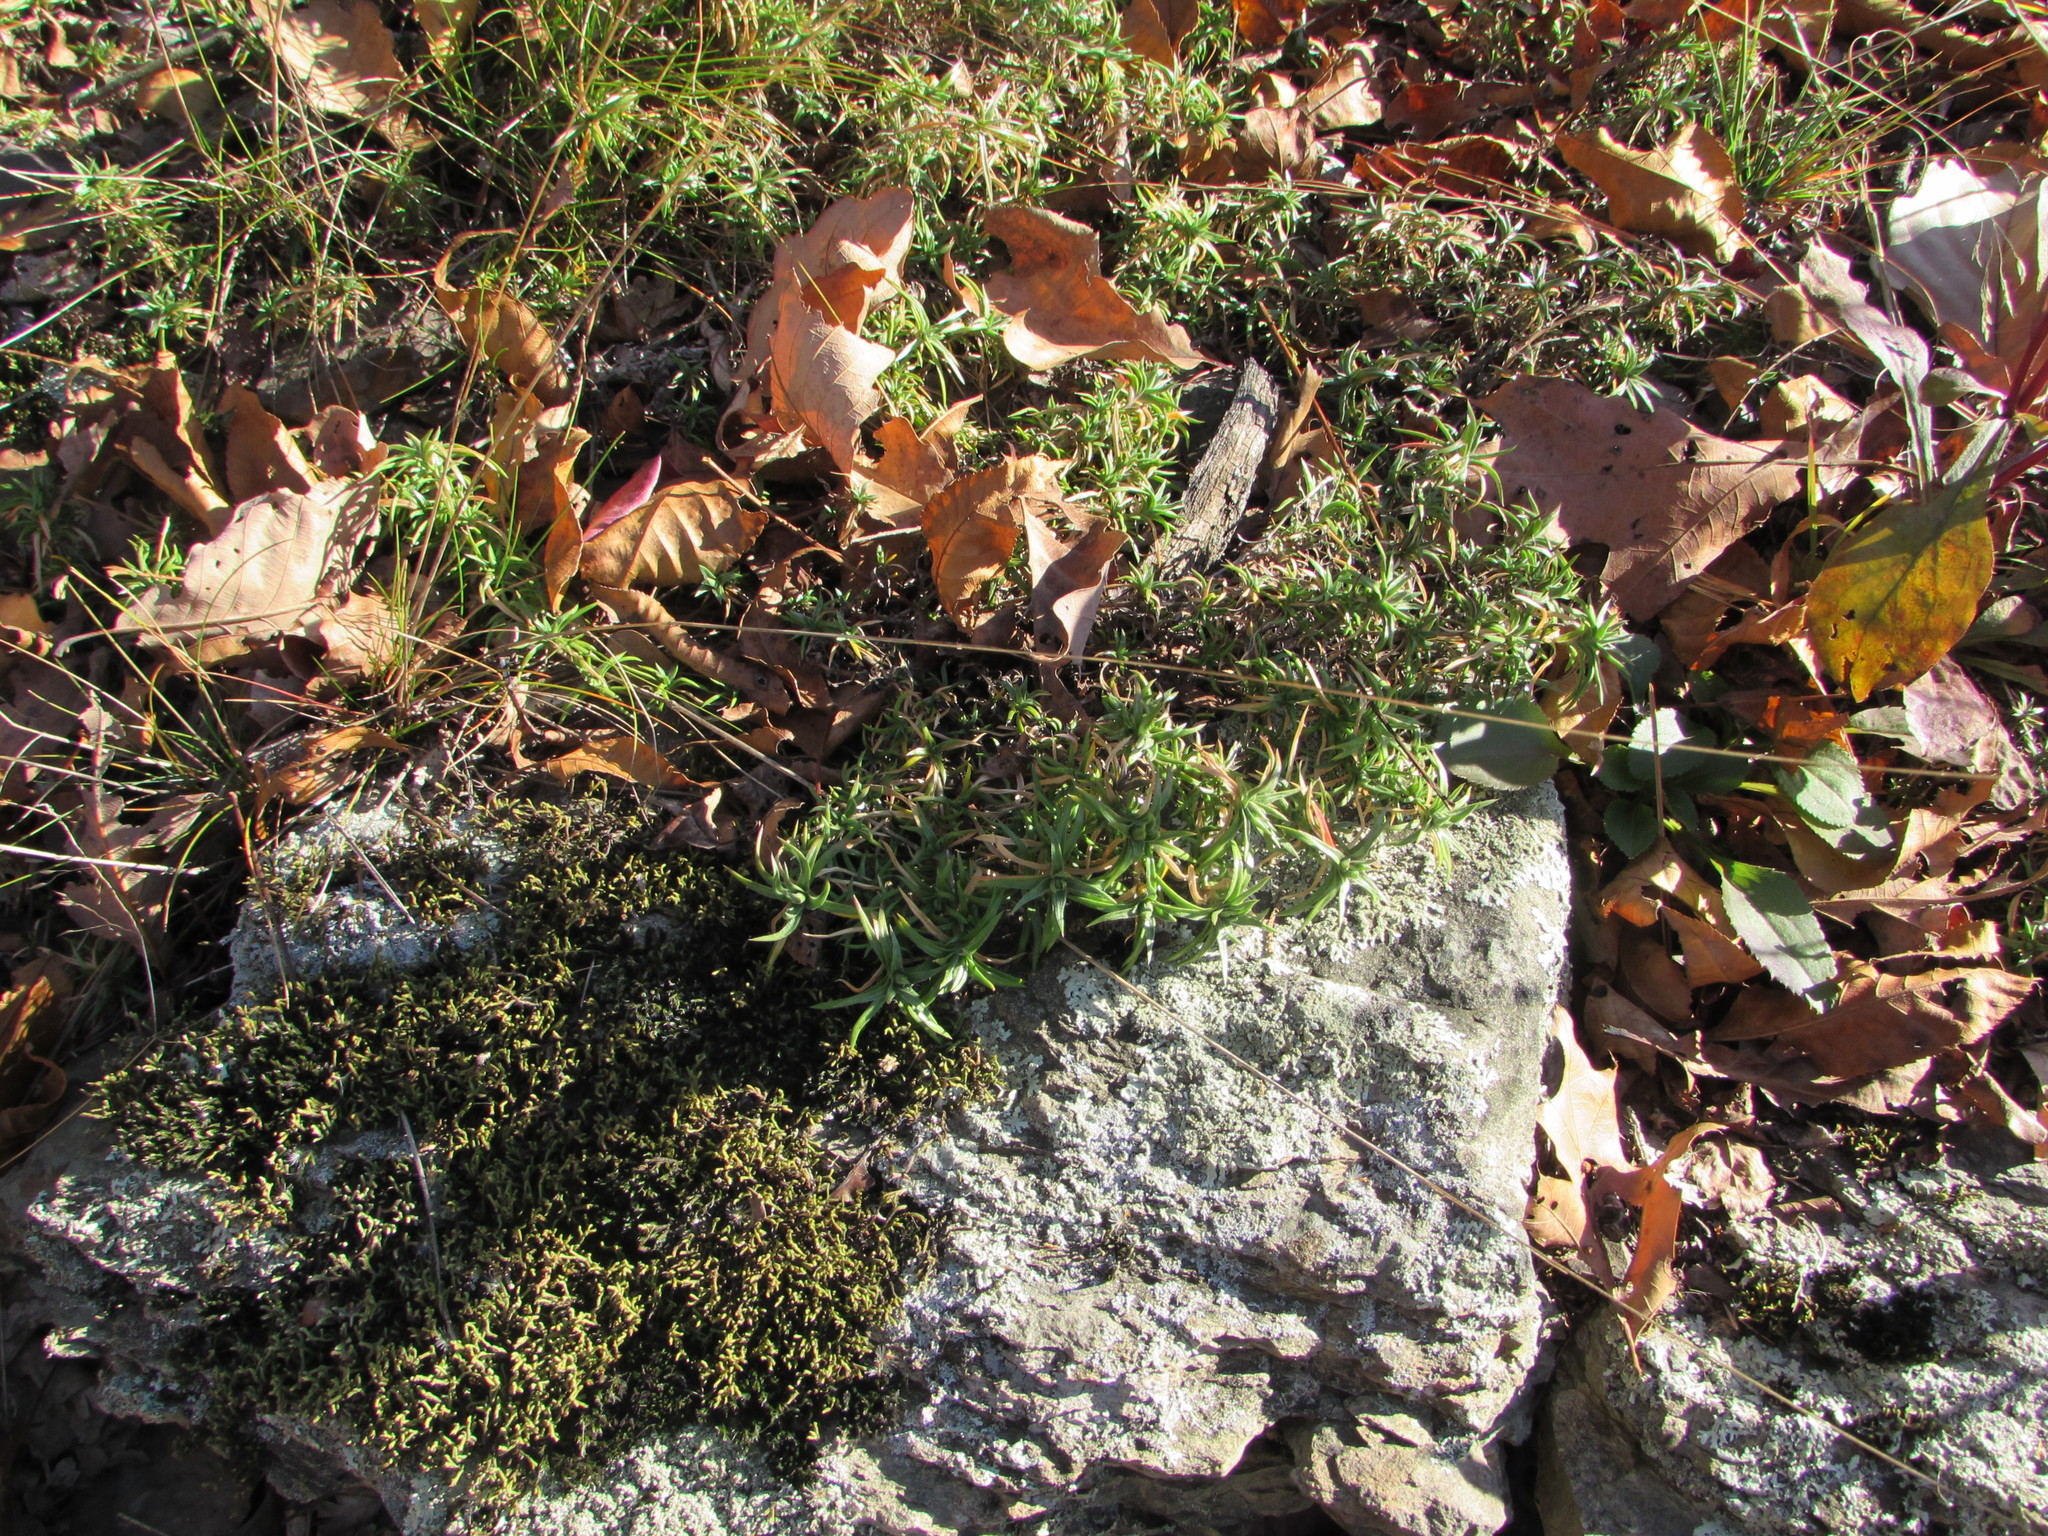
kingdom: Plantae
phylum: Tracheophyta
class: Magnoliopsida
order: Ericales
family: Polemoniaceae
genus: Phlox
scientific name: Phlox subulata
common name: Moss phlox
